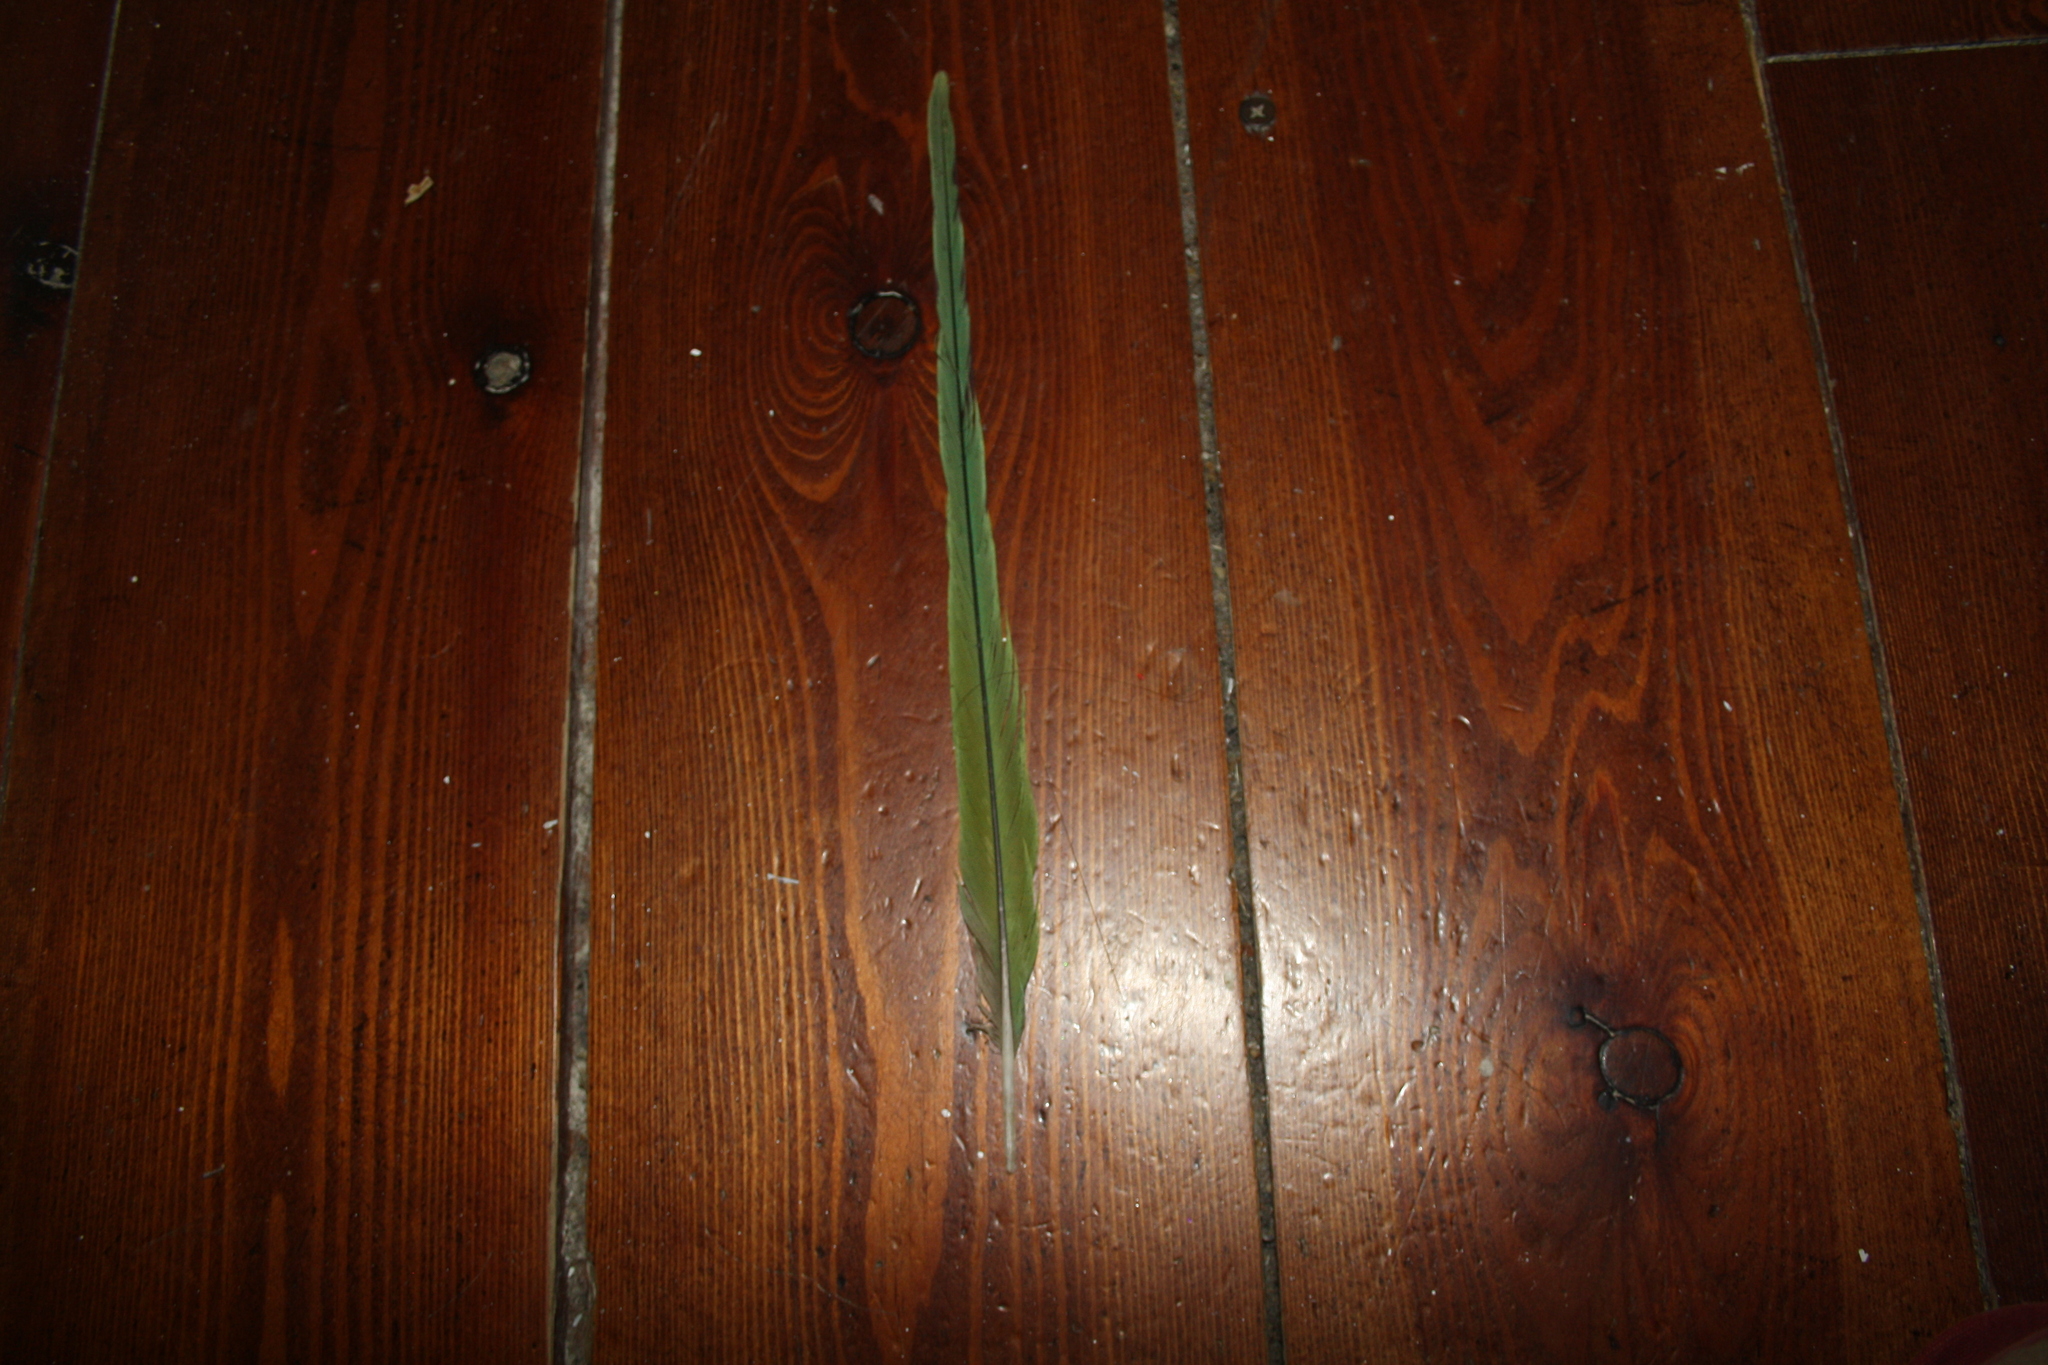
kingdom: Animalia
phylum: Chordata
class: Aves
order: Psittaciformes
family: Psittacidae
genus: Psittacula
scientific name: Psittacula krameri
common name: Rose-ringed parakeet
